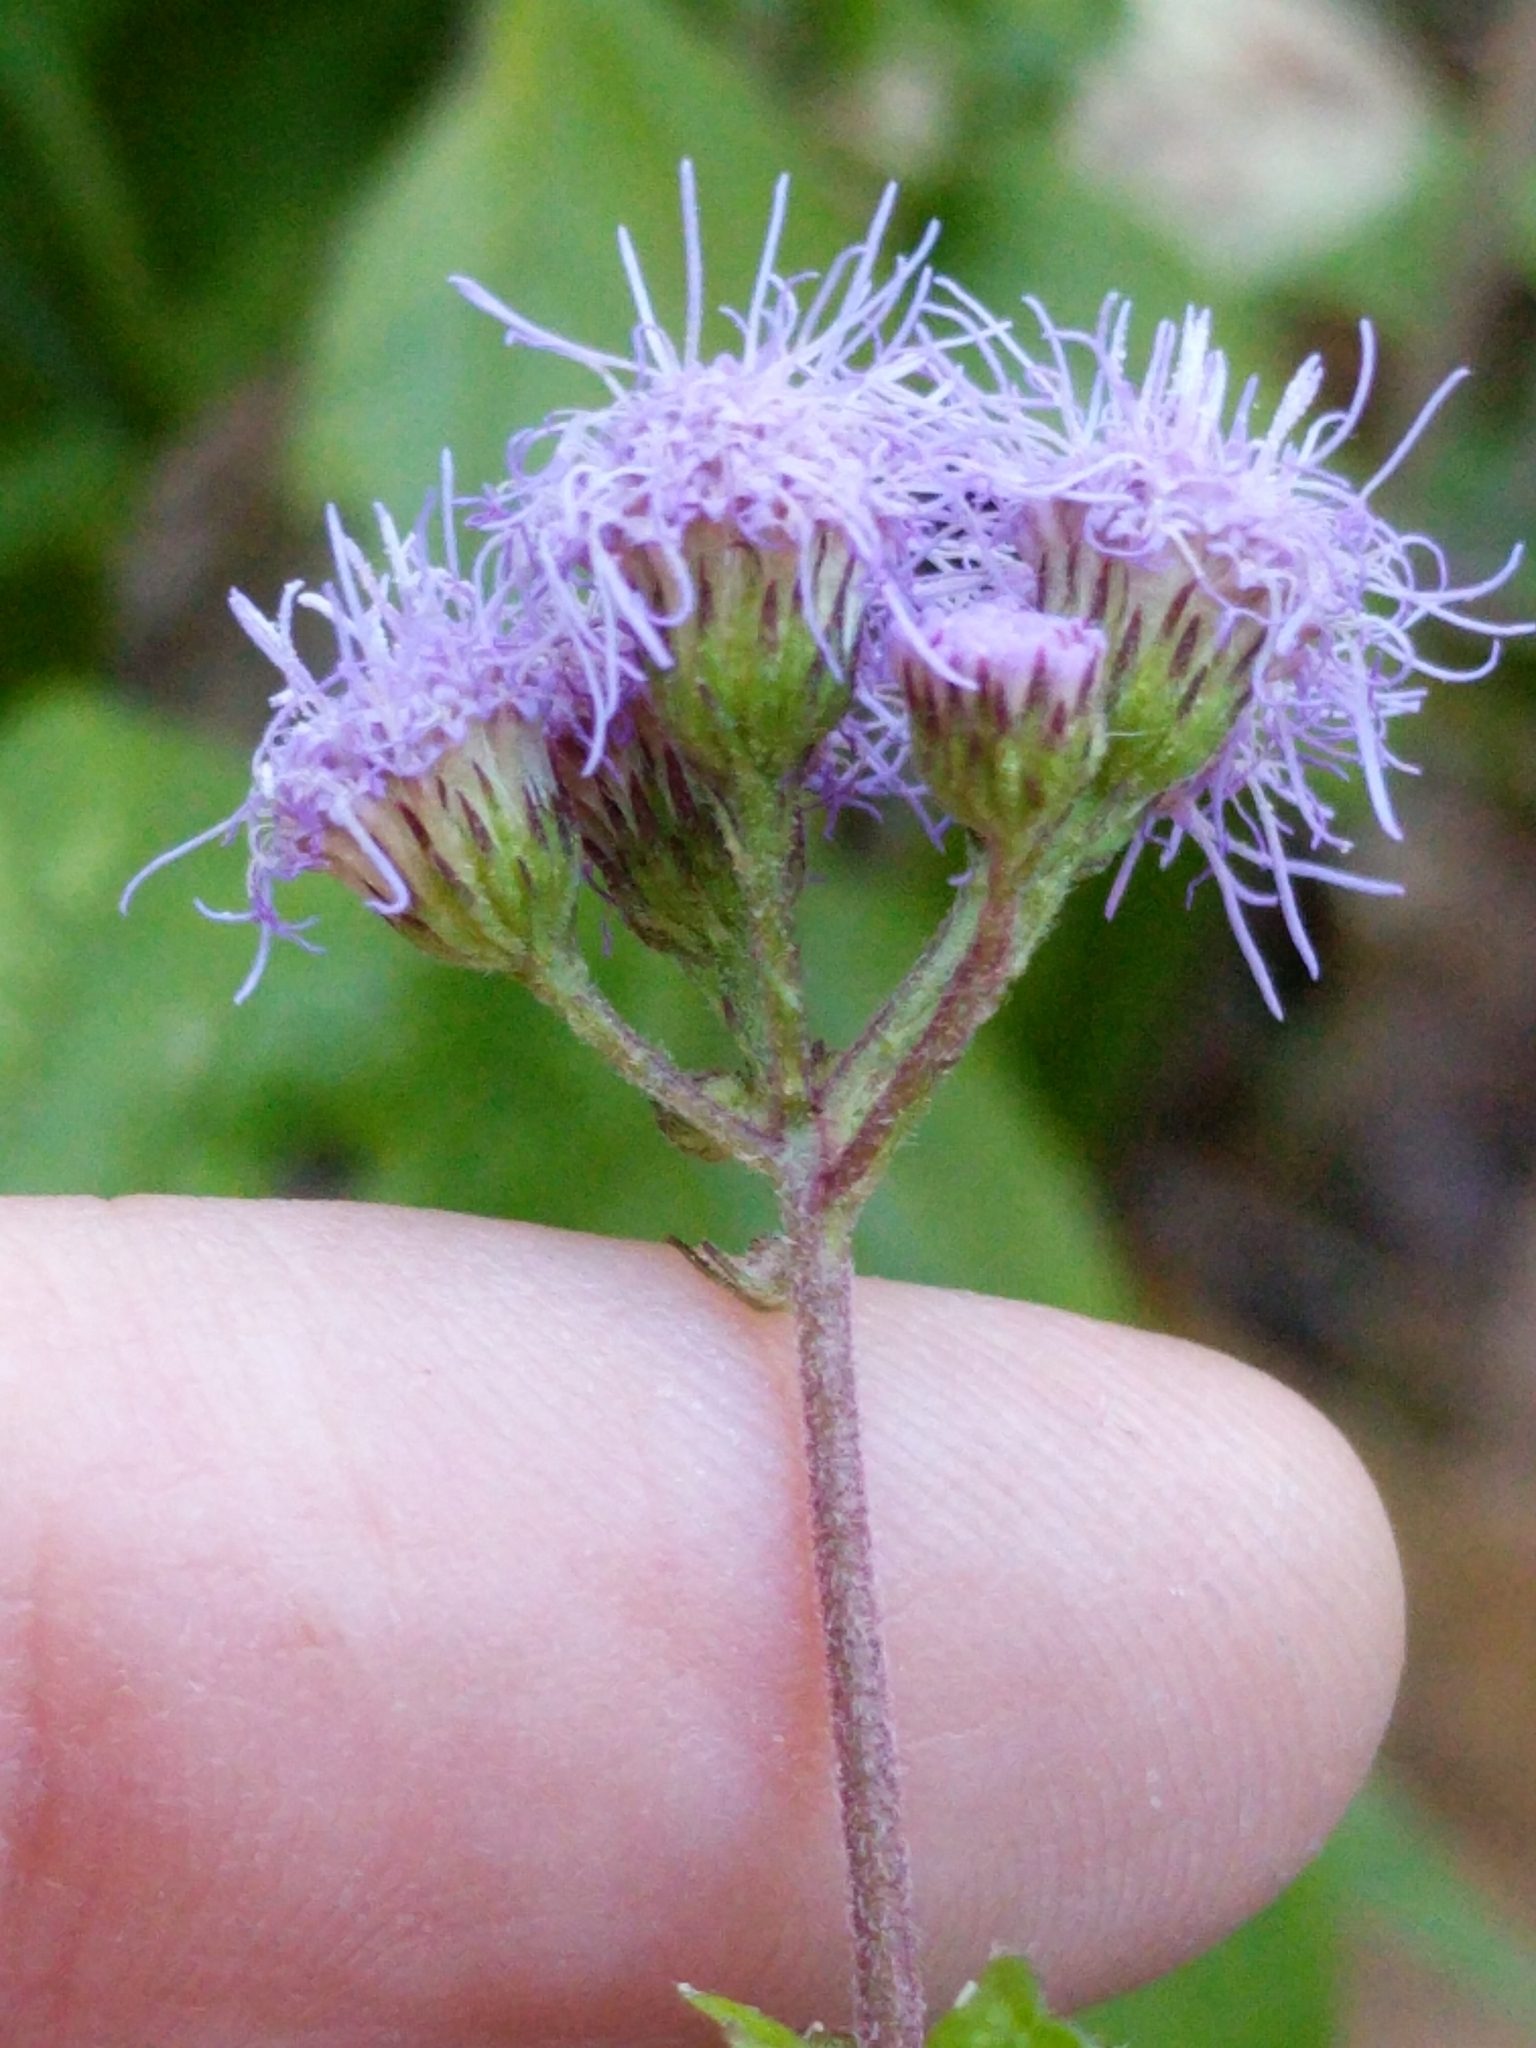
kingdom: Plantae
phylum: Tracheophyta
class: Magnoliopsida
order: Asterales
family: Asteraceae
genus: Conoclinium
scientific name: Conoclinium coelestinum
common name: Blue mistflower
